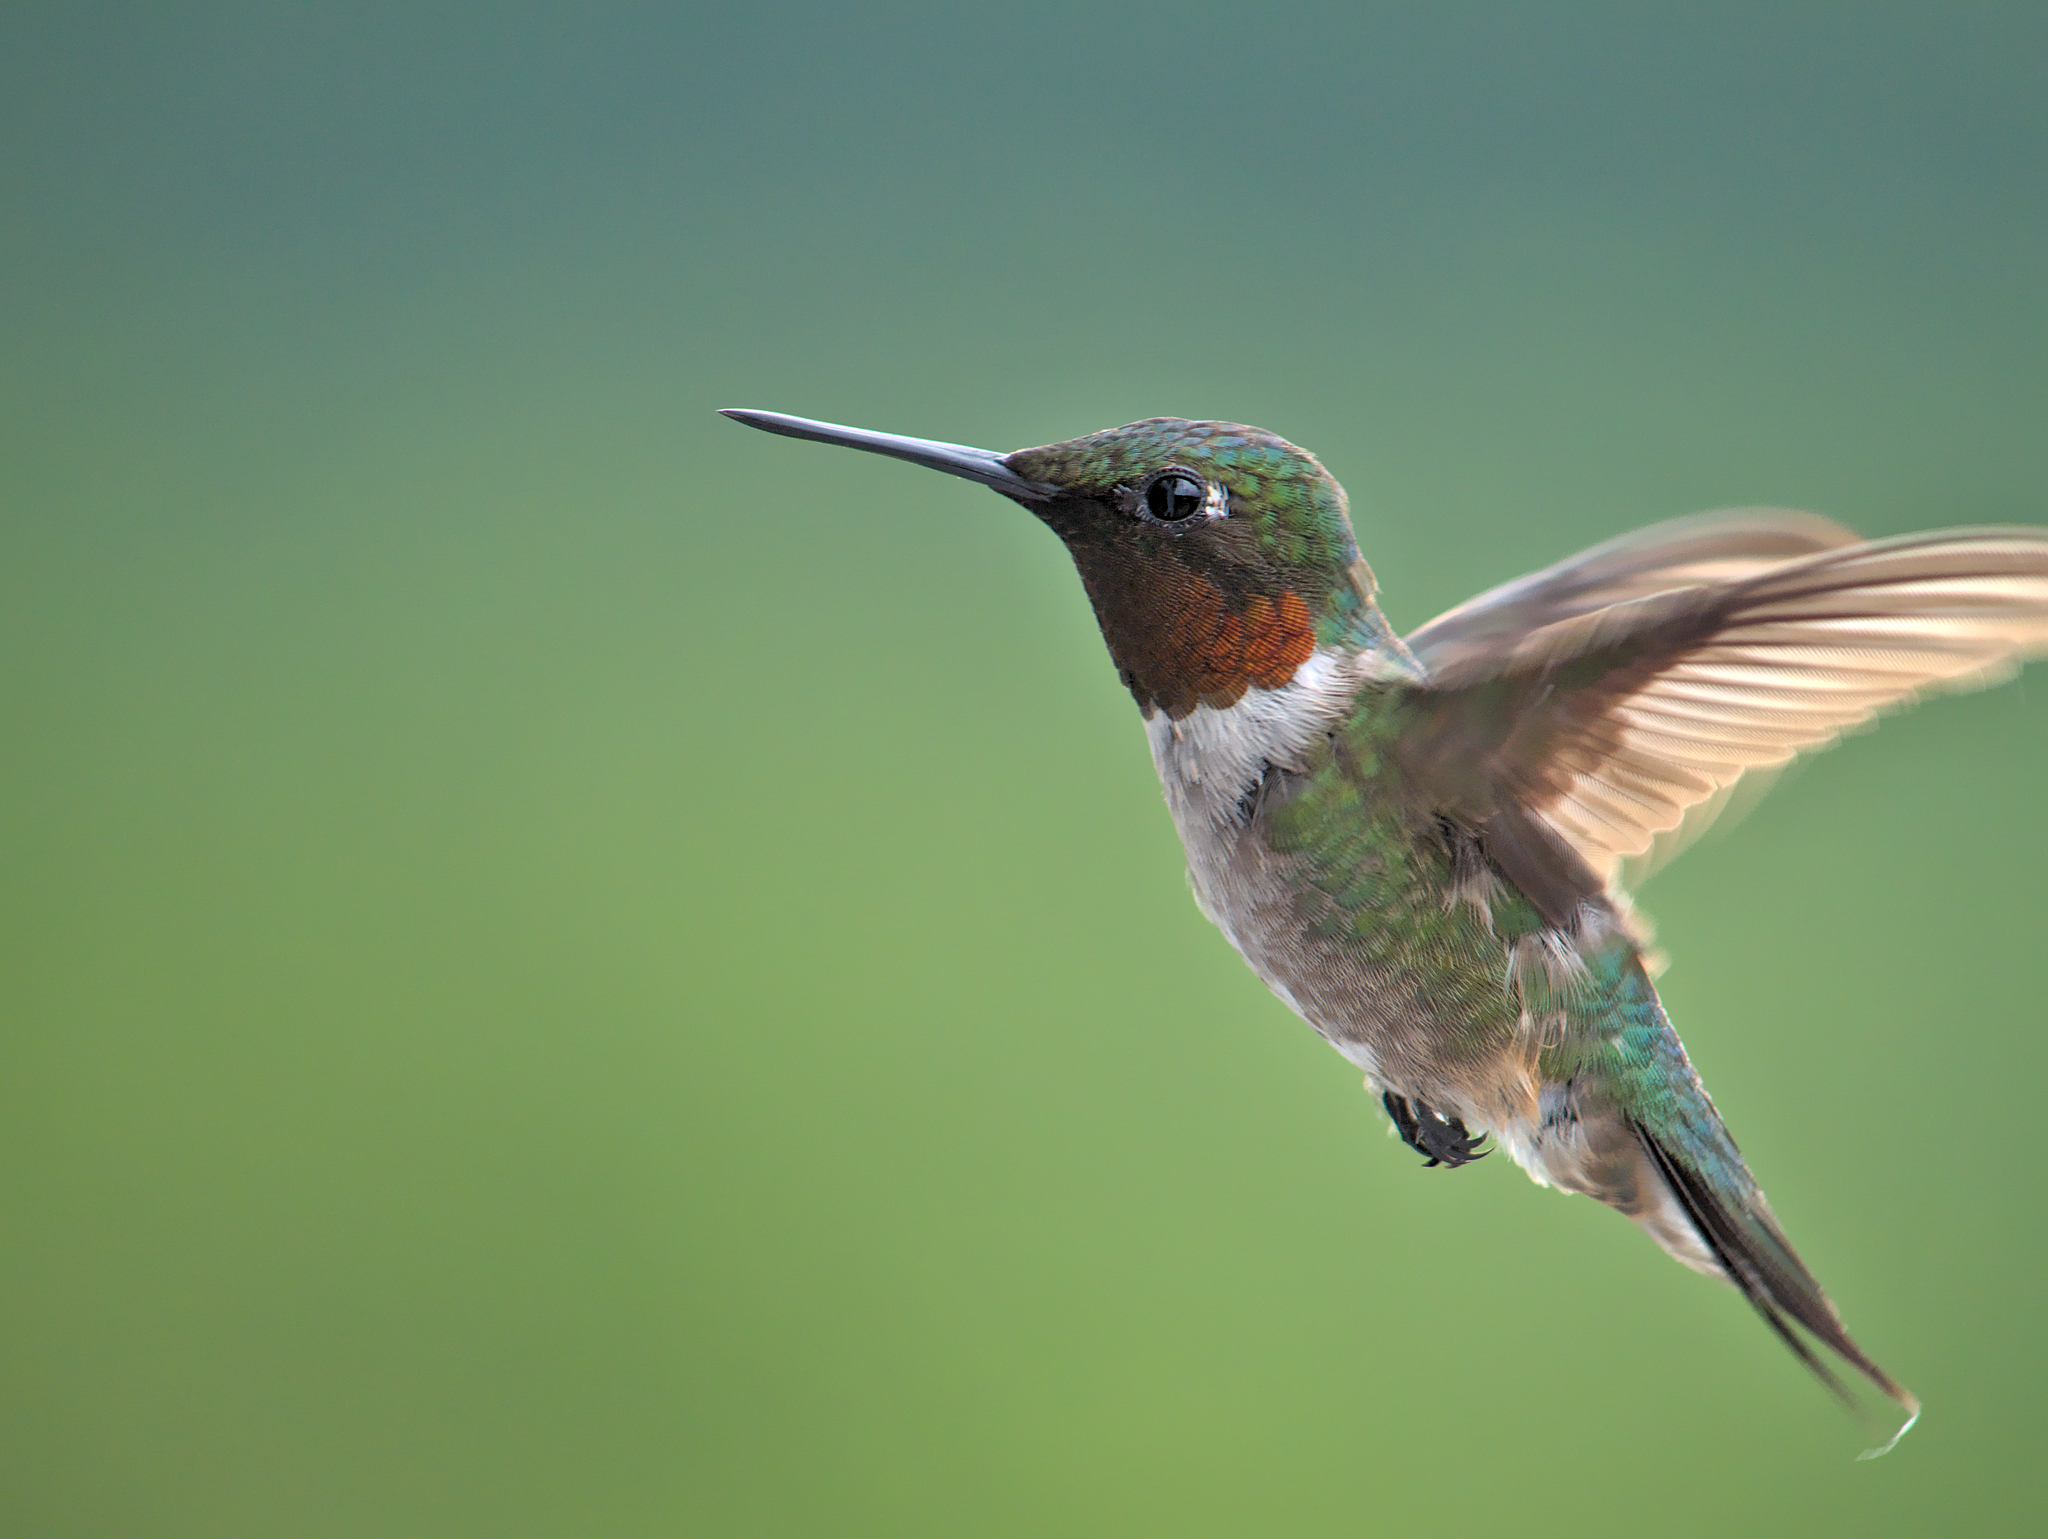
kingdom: Animalia
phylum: Chordata
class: Aves
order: Apodiformes
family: Trochilidae
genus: Archilochus
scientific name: Archilochus colubris
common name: Ruby-throated hummingbird
